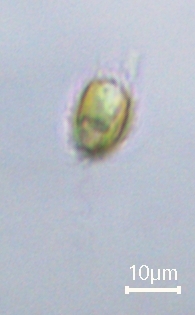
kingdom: Chromista
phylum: Ochrophyta
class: Chrysophyceae
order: Synurales
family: Mallomonadaceae
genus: Mallomonas
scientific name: Mallomonas
